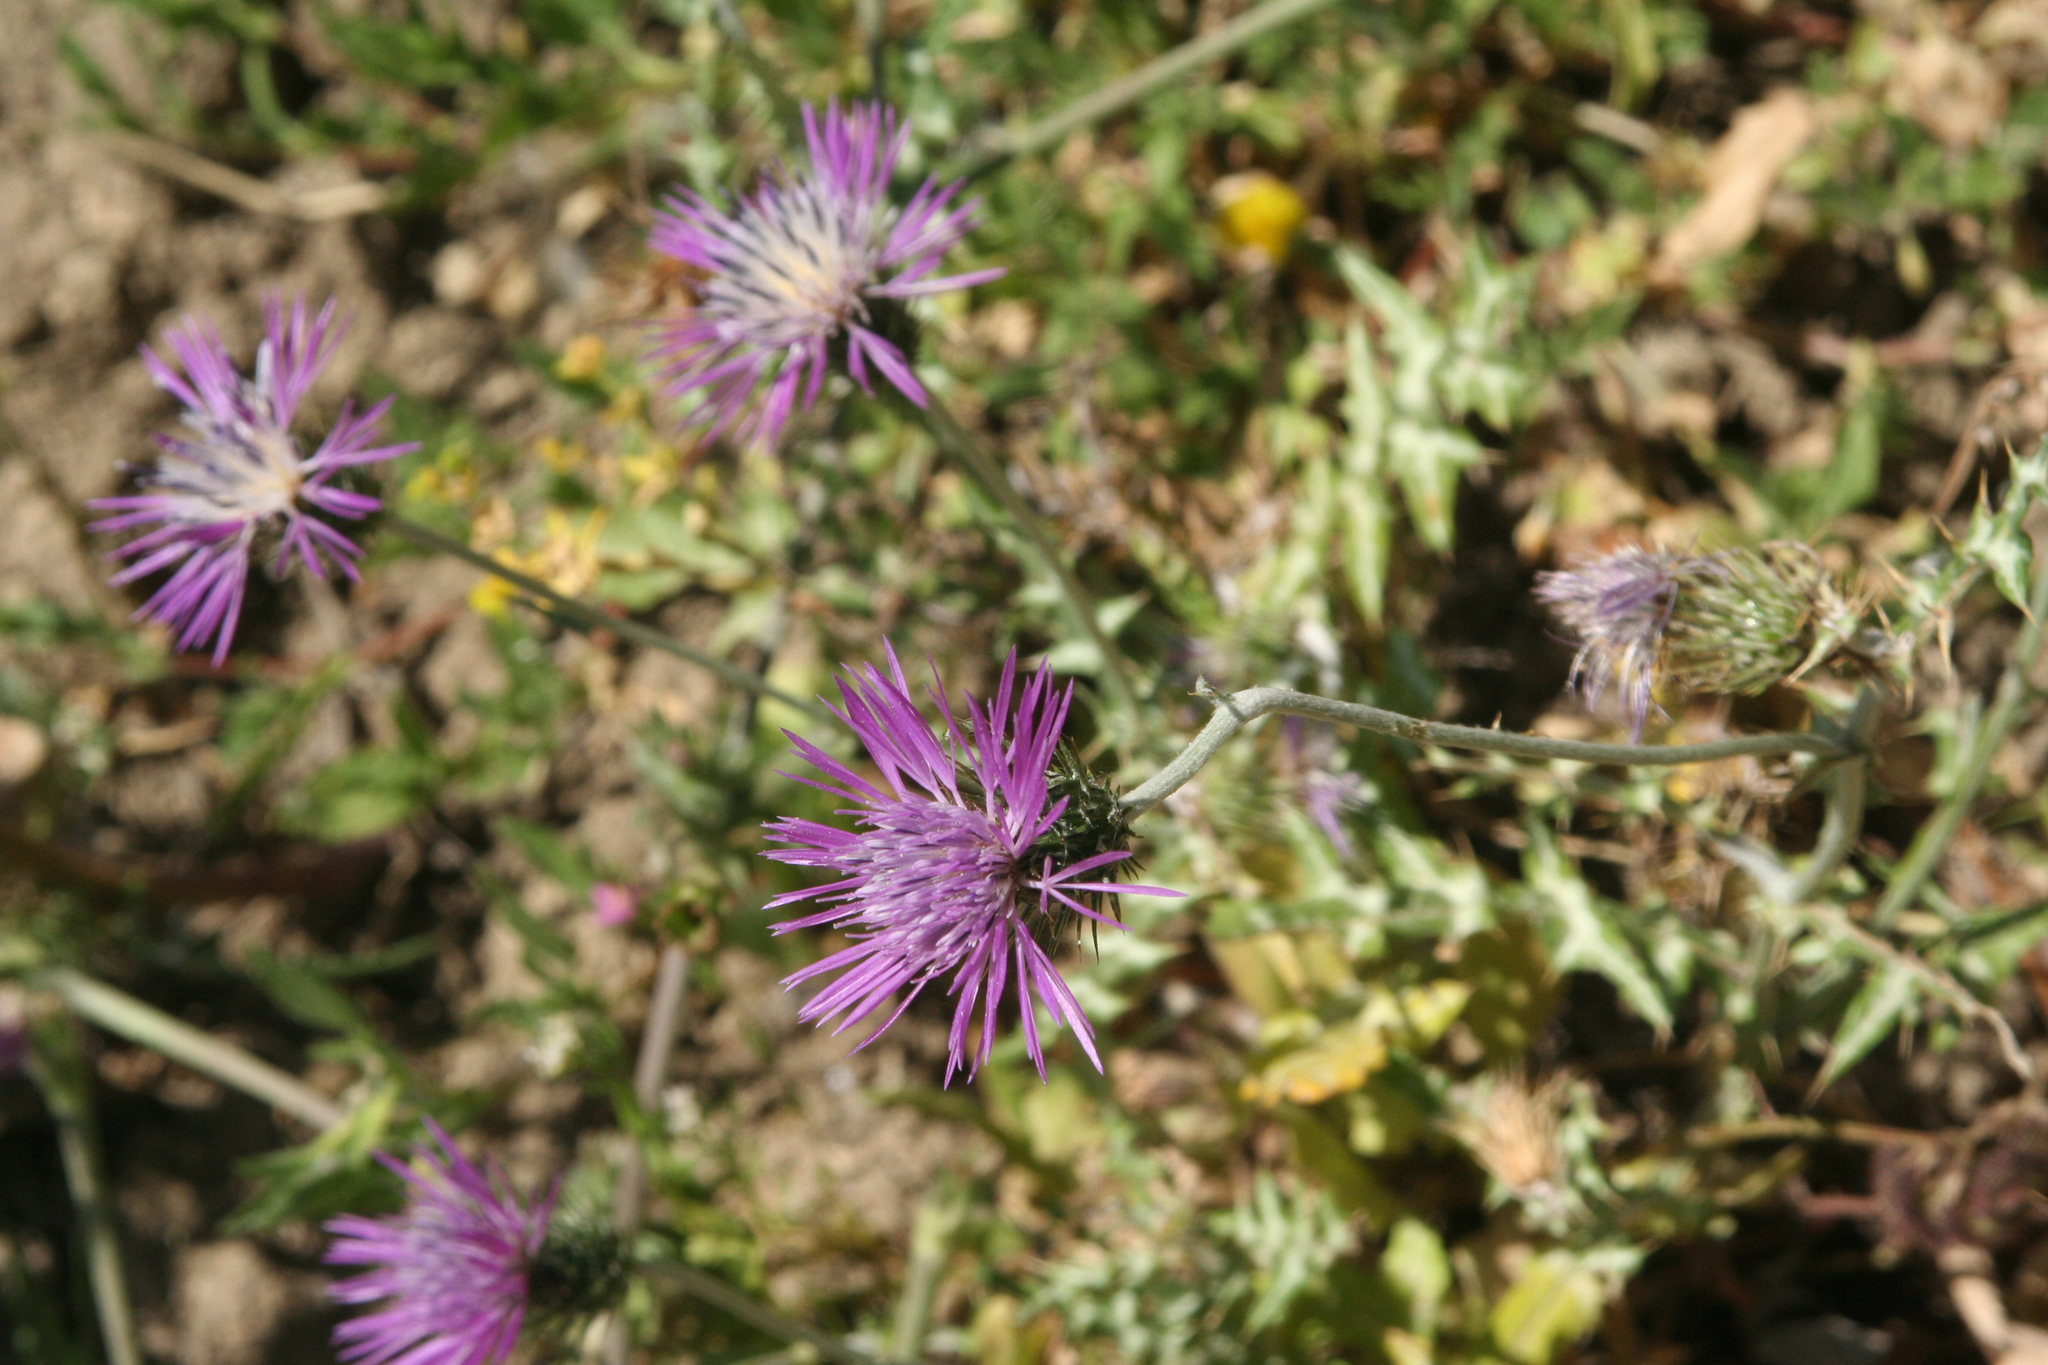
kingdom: Plantae
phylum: Tracheophyta
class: Magnoliopsida
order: Asterales
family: Asteraceae
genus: Galactites
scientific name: Galactites tomentosa
